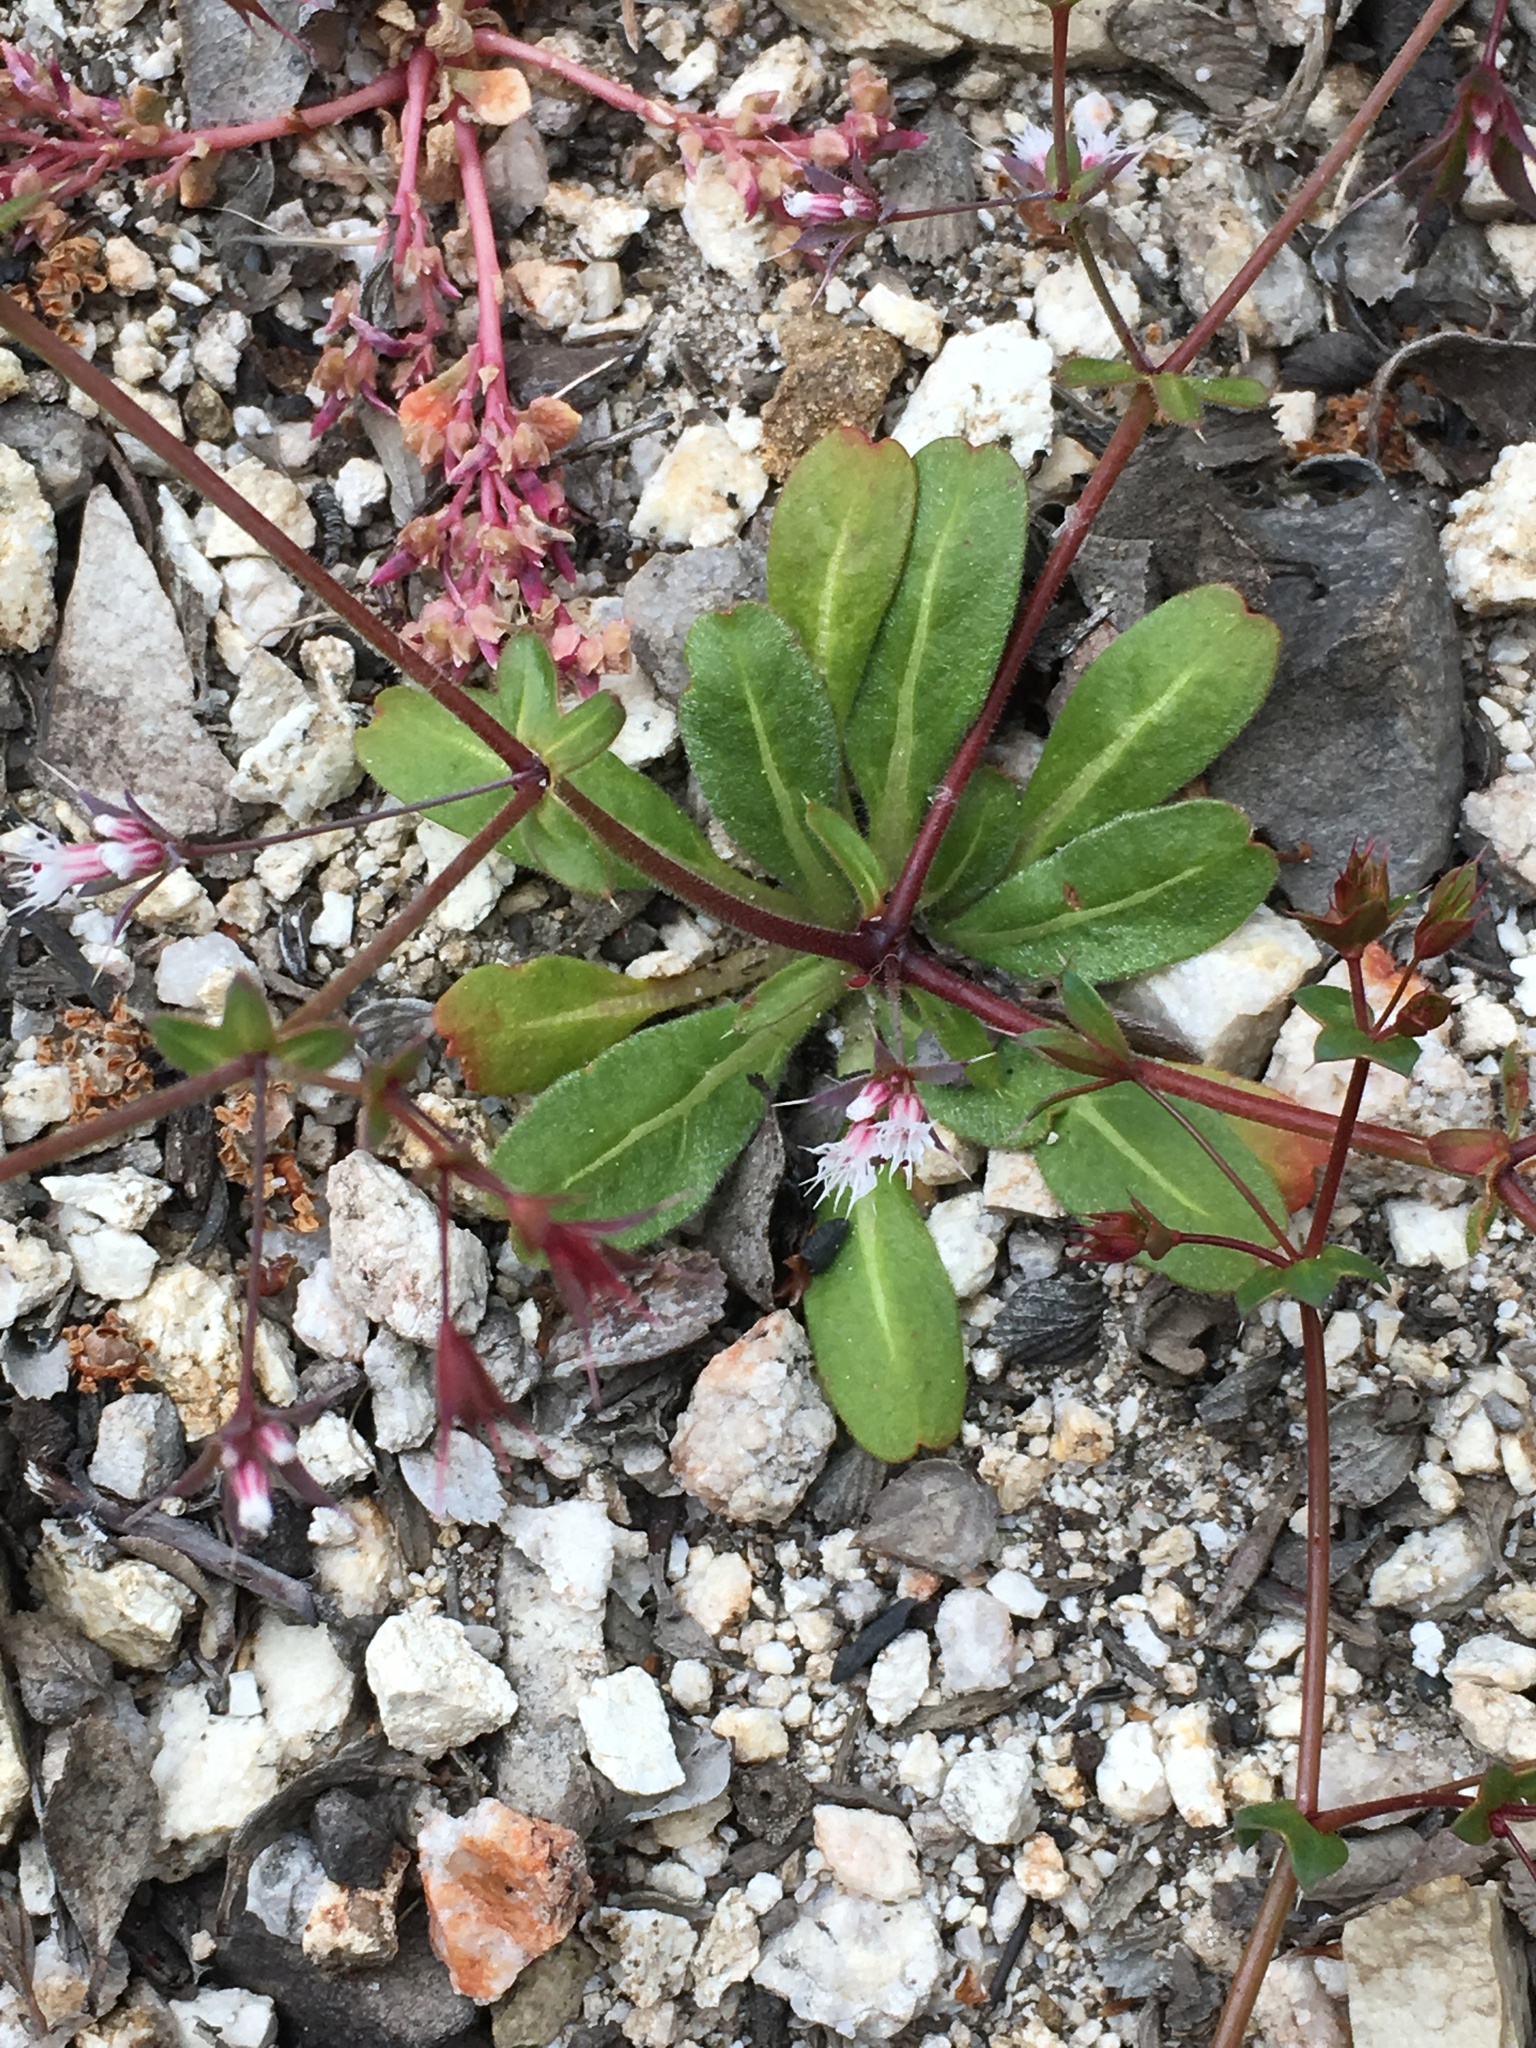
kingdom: Plantae
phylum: Tracheophyta
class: Magnoliopsida
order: Caryophyllales
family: Polygonaceae
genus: Sidotheca
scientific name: Sidotheca trilobata
